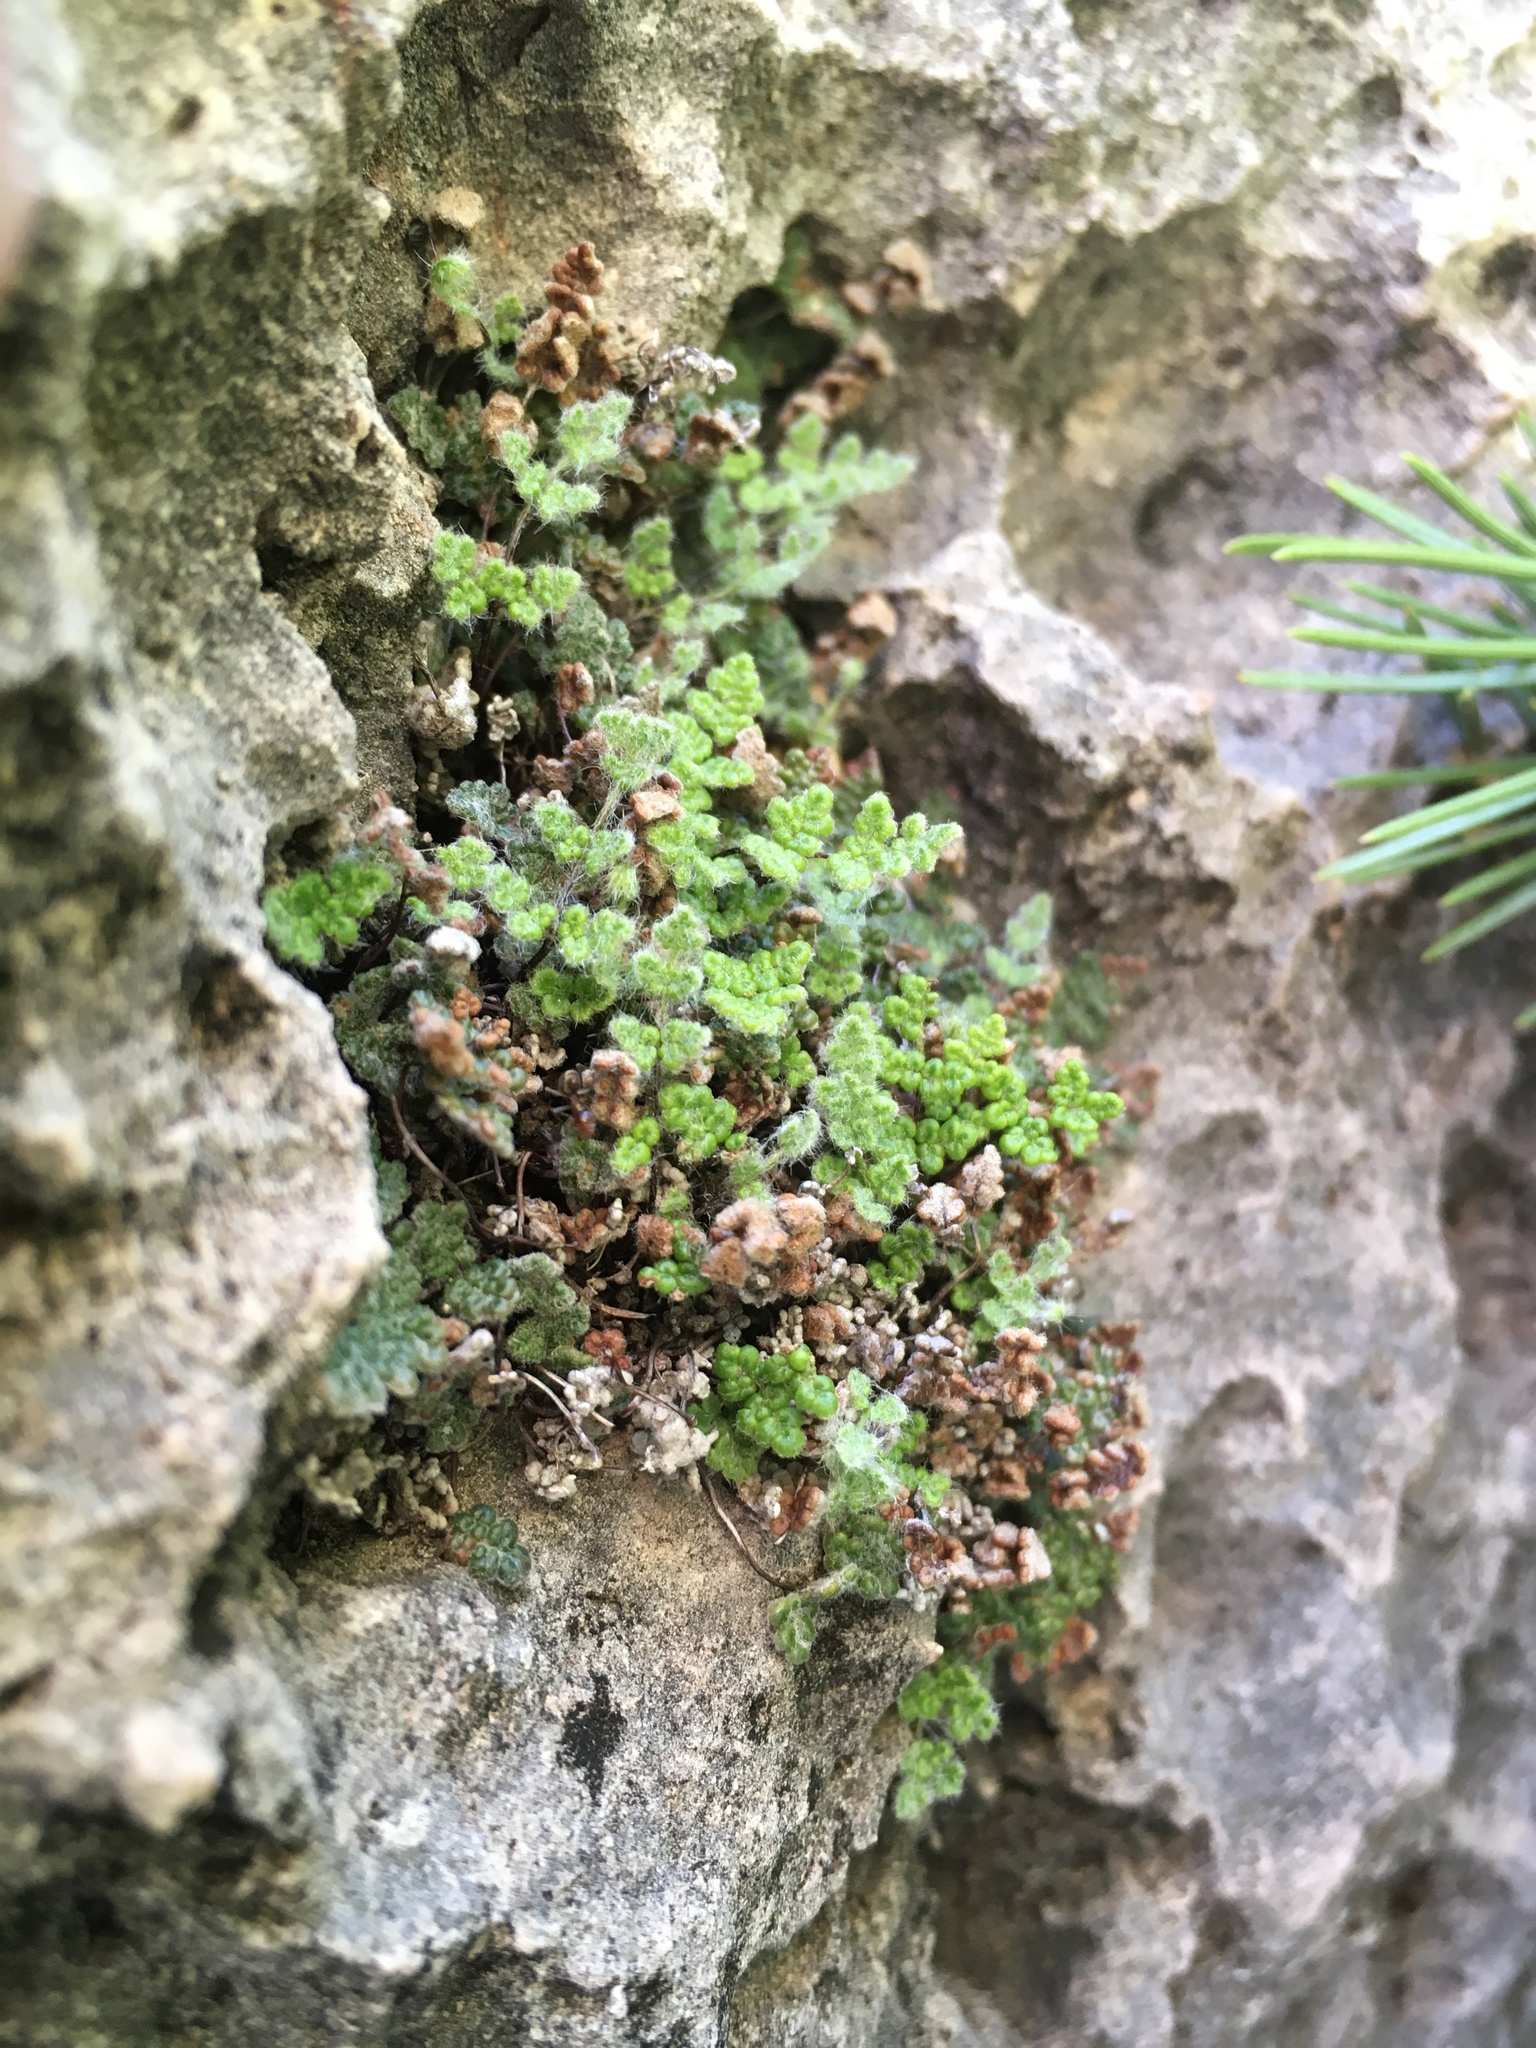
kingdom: Plantae
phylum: Tracheophyta
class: Polypodiopsida
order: Polypodiales
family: Pteridaceae
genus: Myriopteris
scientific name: Myriopteris gracilis
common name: Fee's lip fern
